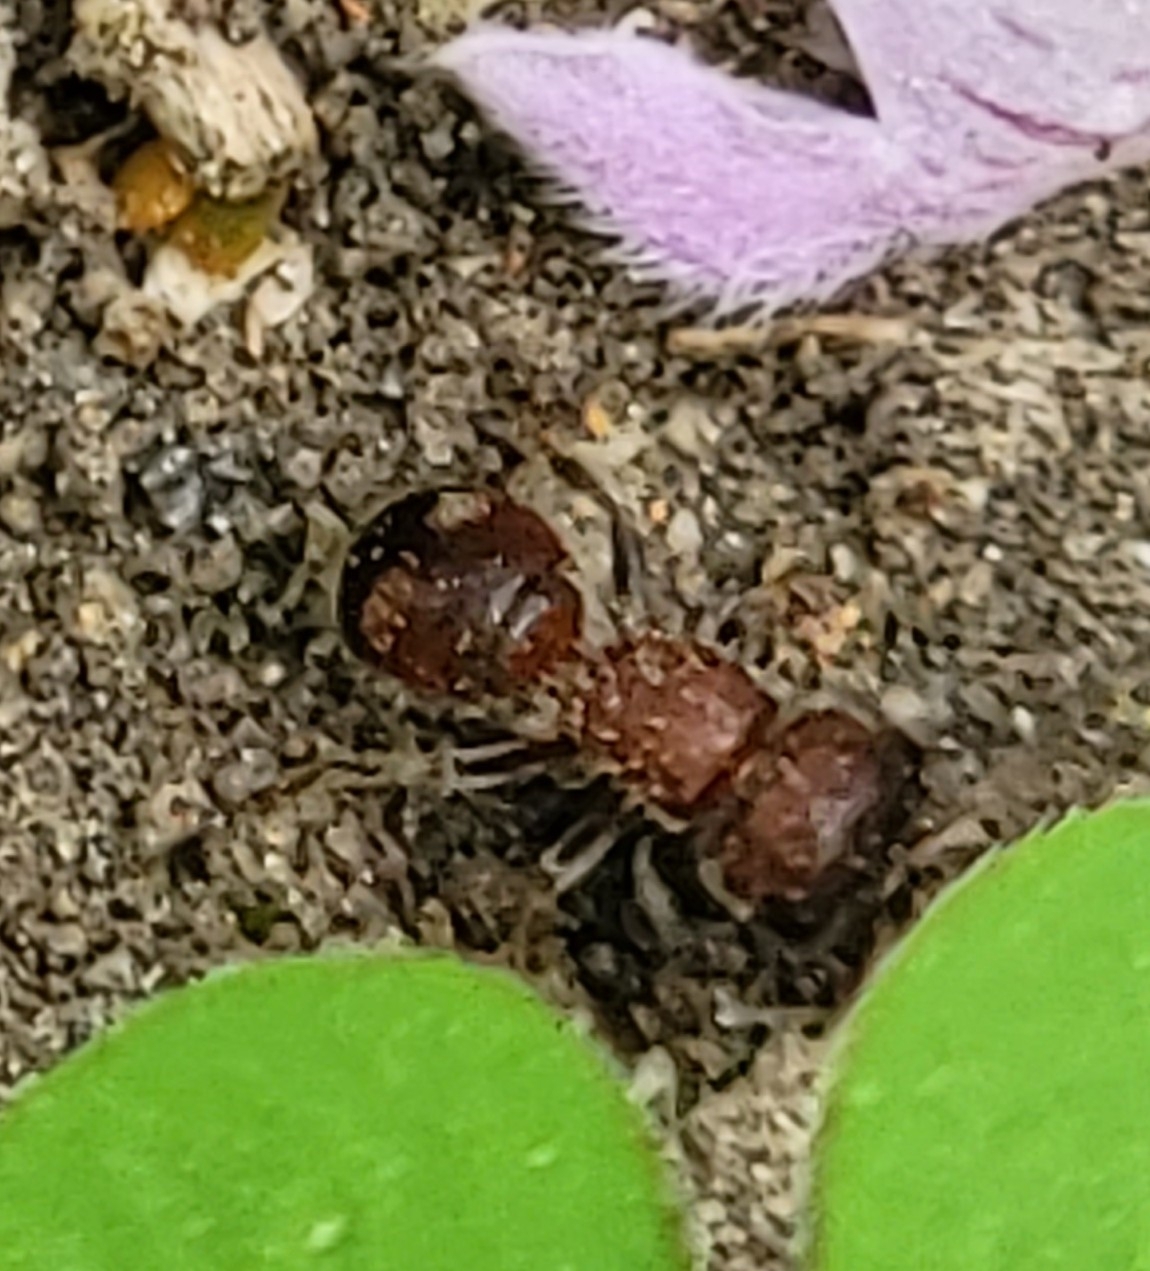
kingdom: Animalia
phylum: Arthropoda
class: Insecta
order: Hymenoptera
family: Mutillidae
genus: Pseudomethoca
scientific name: Pseudomethoca
